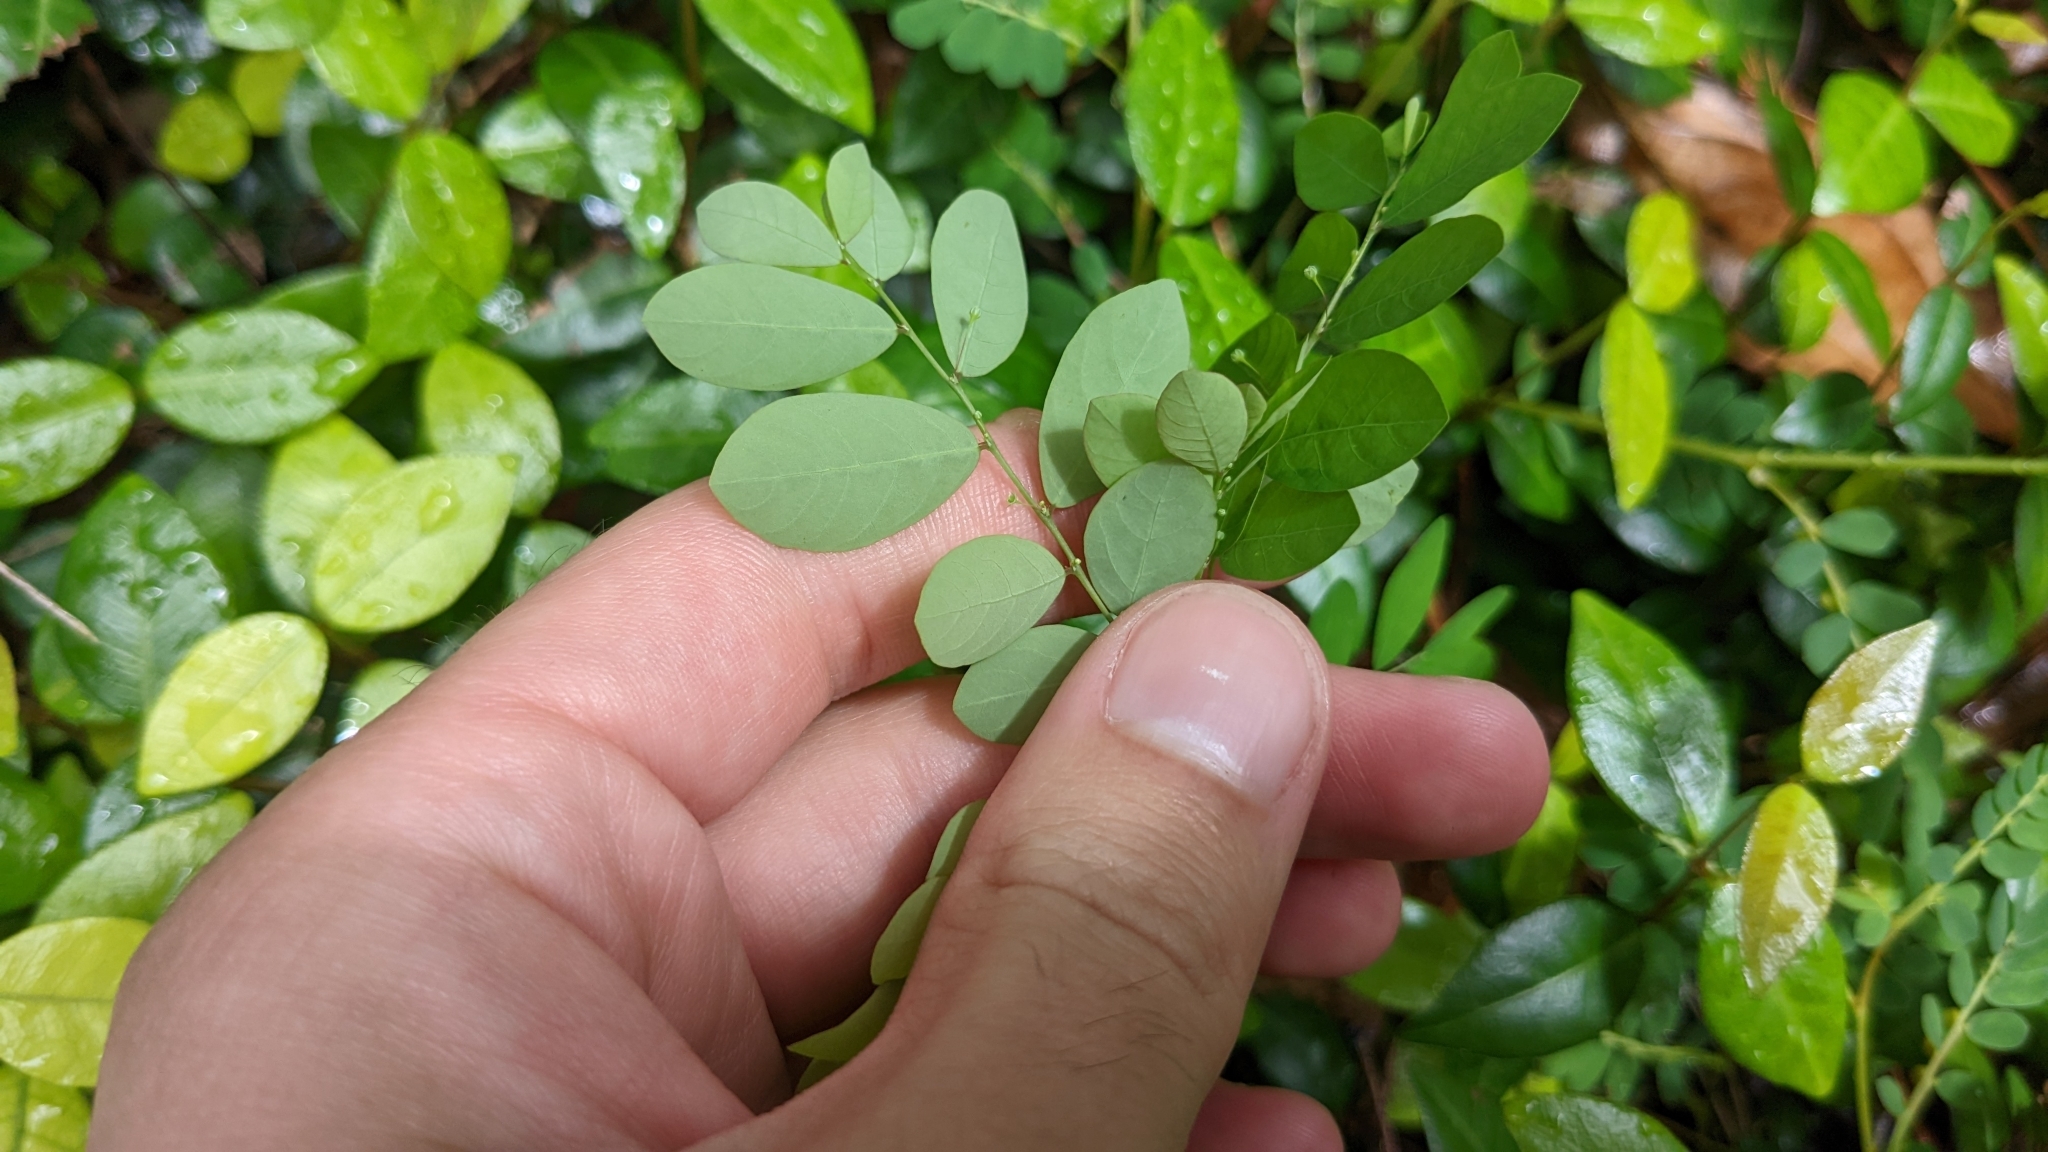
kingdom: Plantae
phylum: Tracheophyta
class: Magnoliopsida
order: Malpighiales
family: Phyllanthaceae
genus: Phyllanthus
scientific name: Phyllanthus tenellus
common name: Mascarene island leaf-flower
